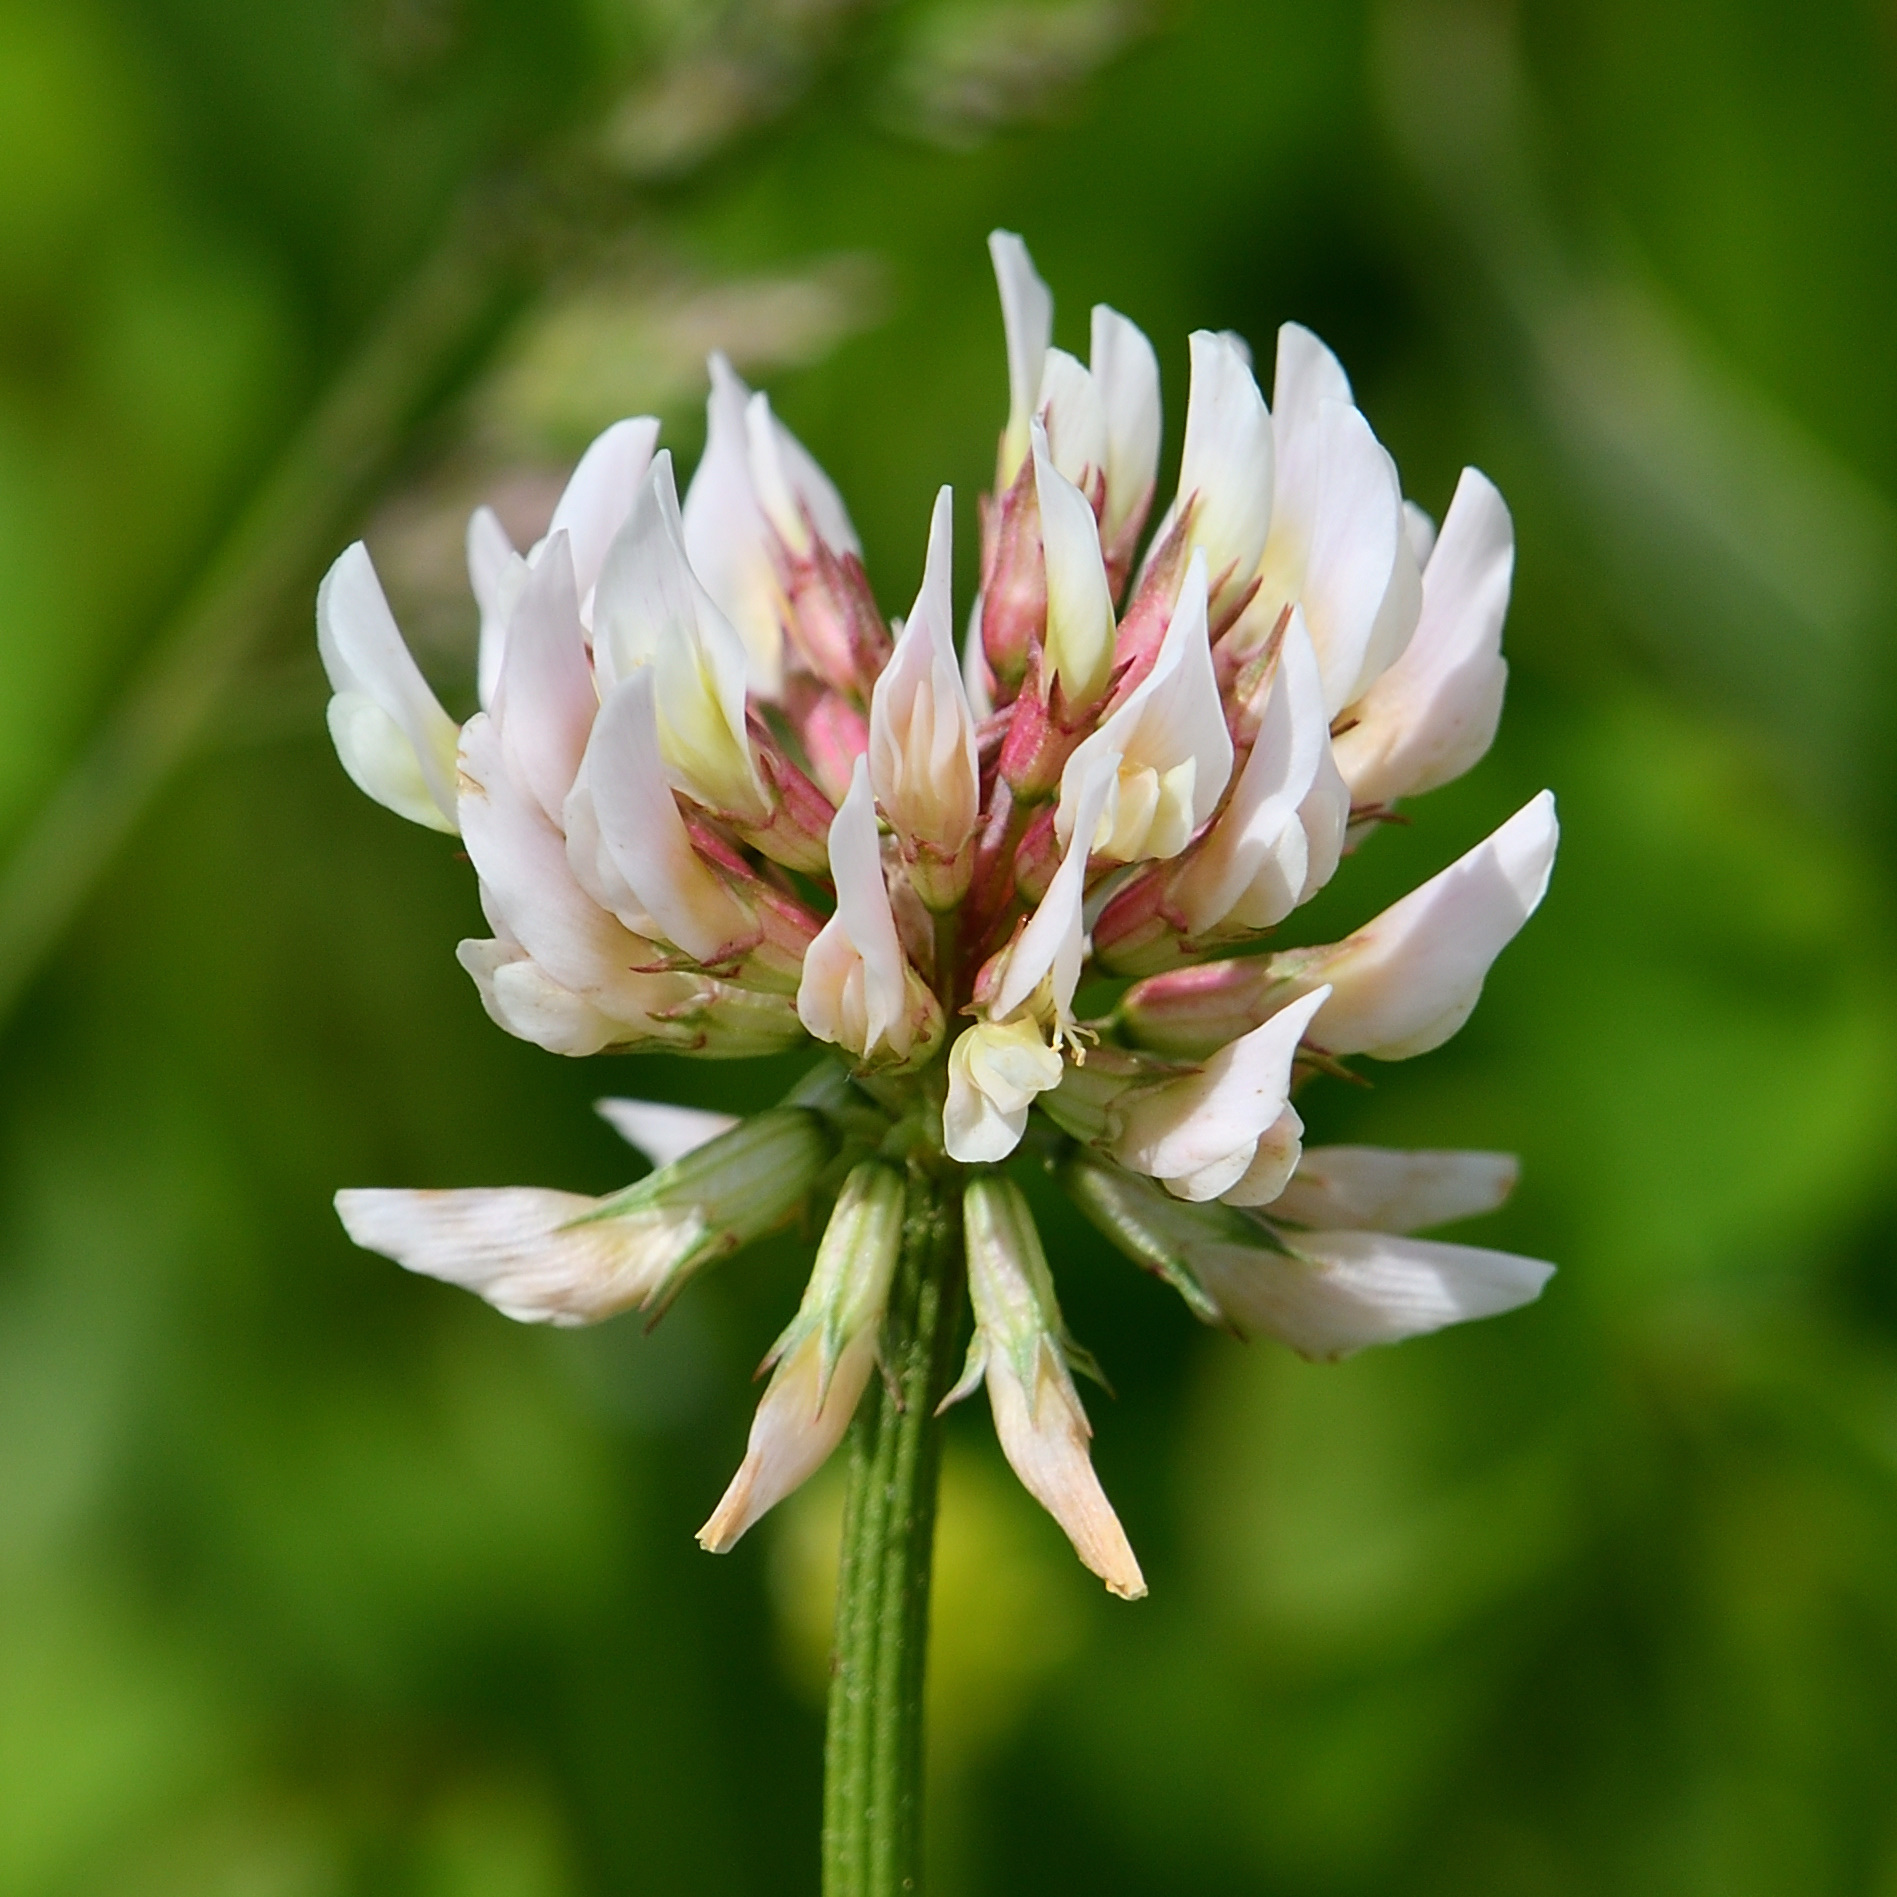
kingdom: Plantae
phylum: Tracheophyta
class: Magnoliopsida
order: Fabales
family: Fabaceae
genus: Trifolium
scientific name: Trifolium repens
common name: White clover
